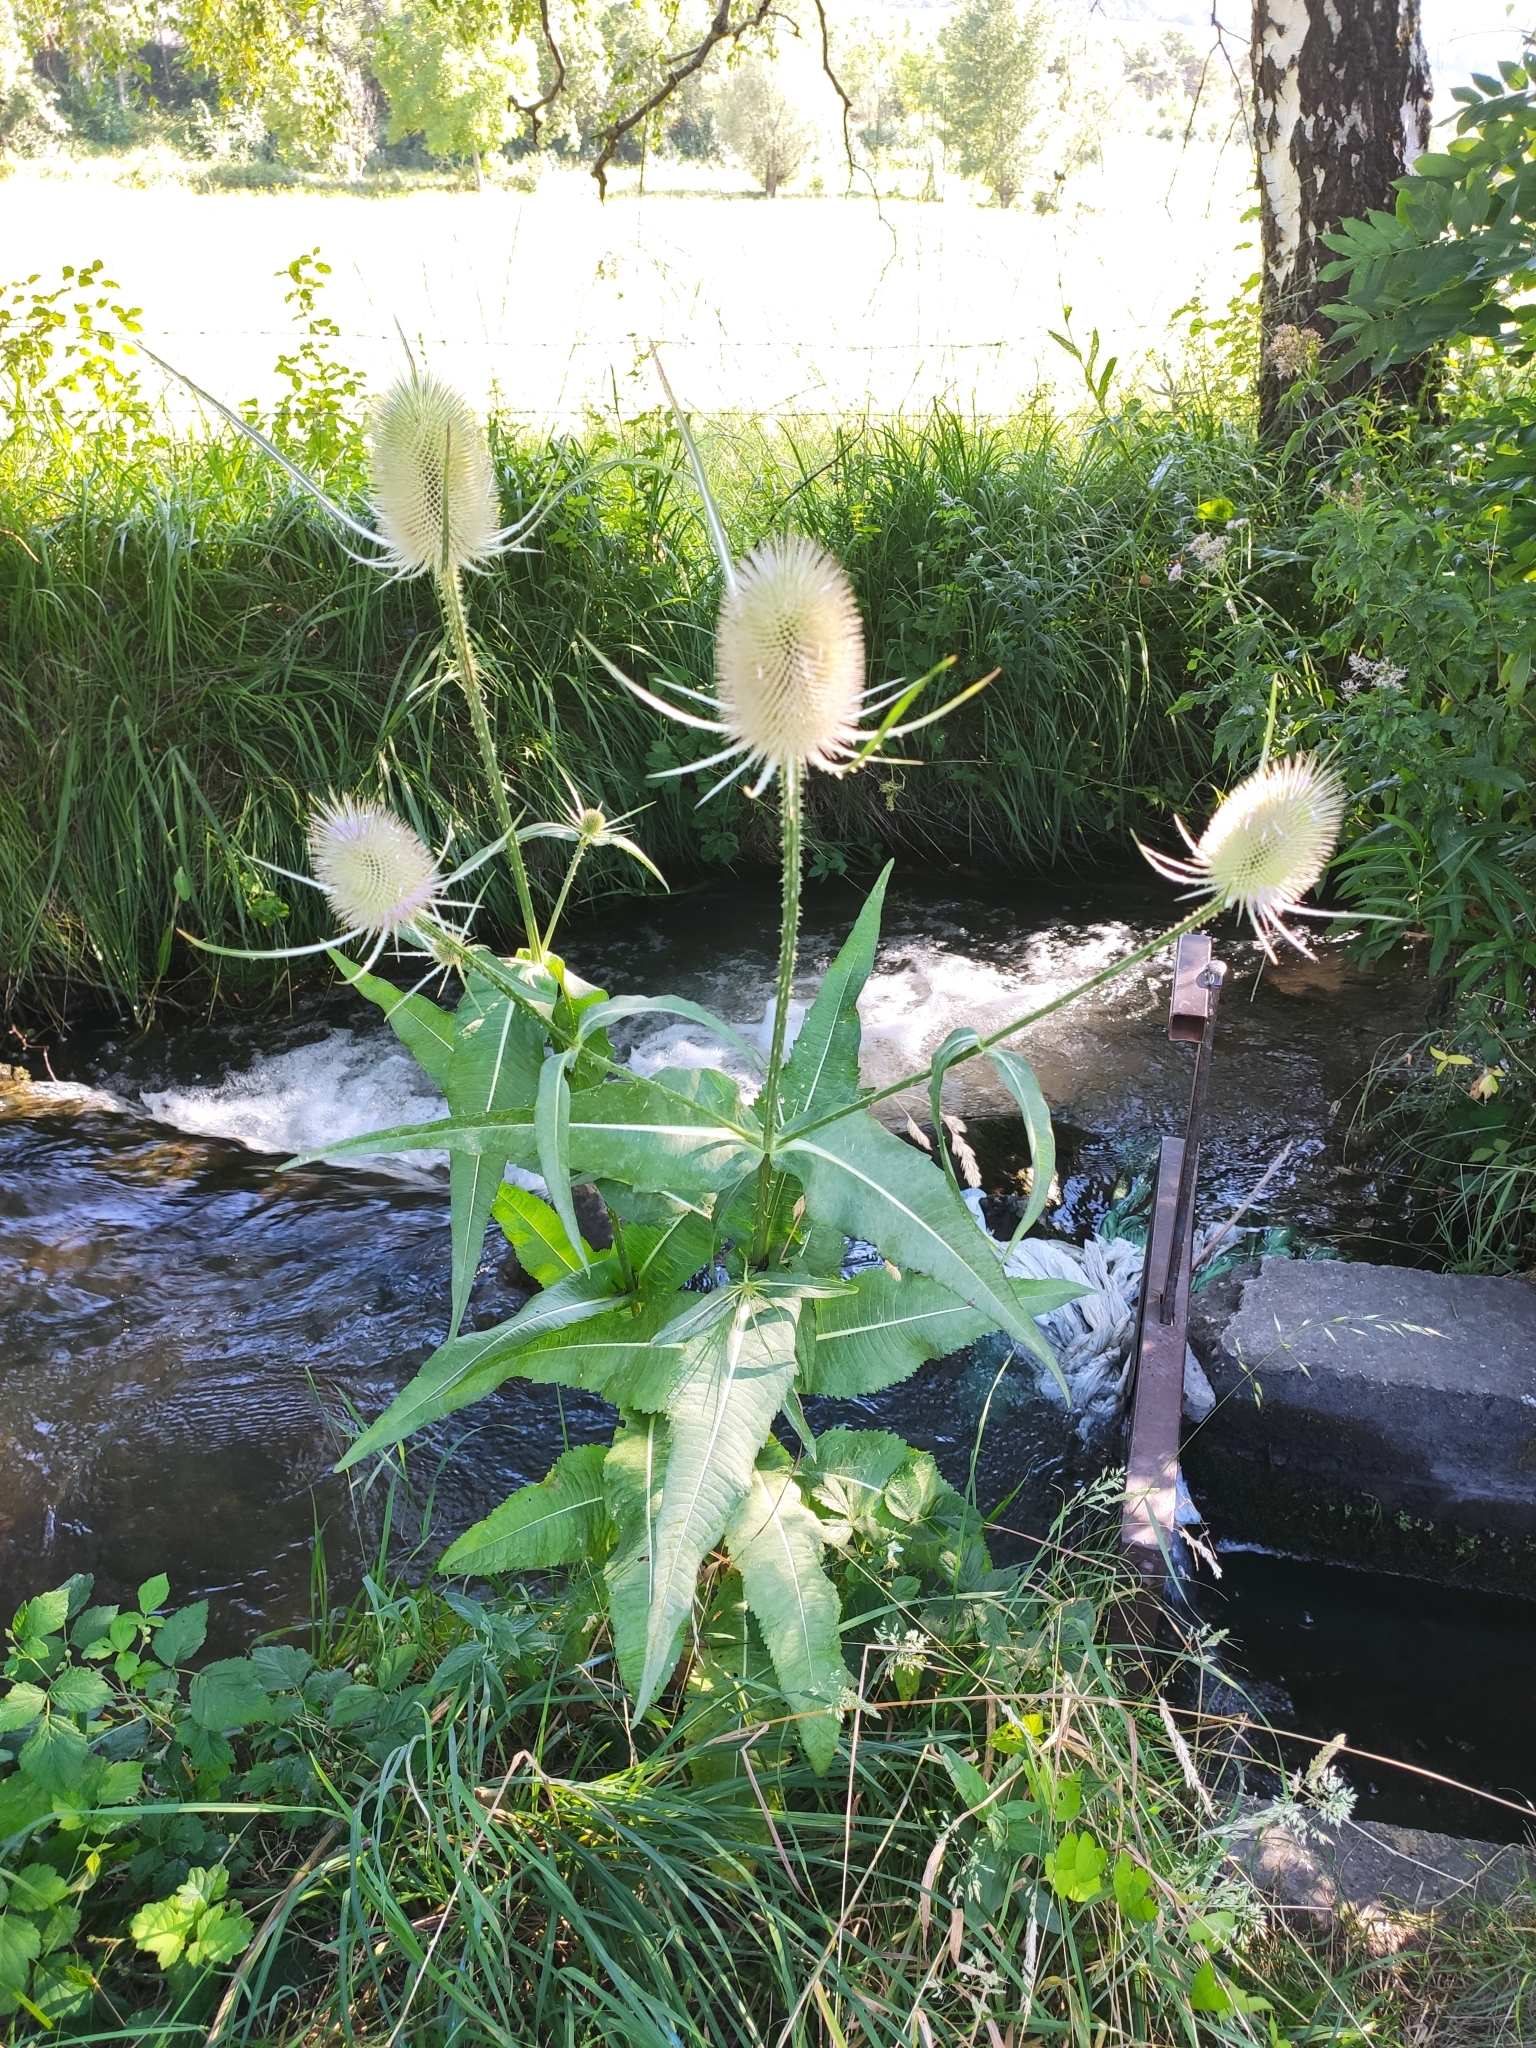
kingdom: Plantae
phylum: Tracheophyta
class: Magnoliopsida
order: Dipsacales
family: Caprifoliaceae
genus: Dipsacus
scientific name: Dipsacus fullonum
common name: Teasel
